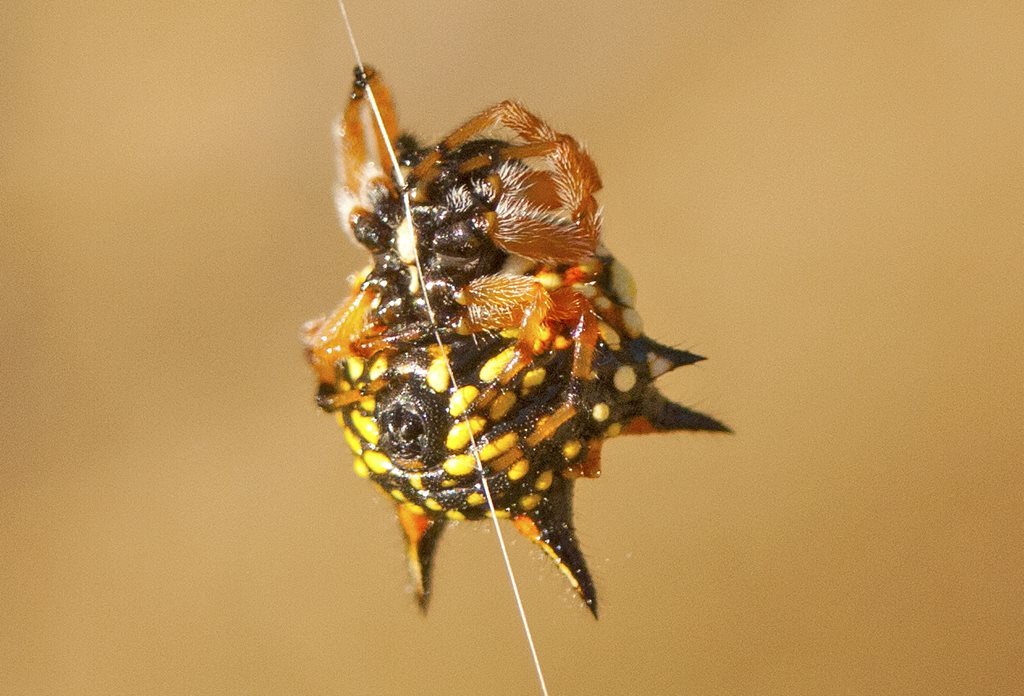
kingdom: Animalia
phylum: Arthropoda
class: Arachnida
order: Araneae
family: Araneidae
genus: Austracantha
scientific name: Austracantha minax
